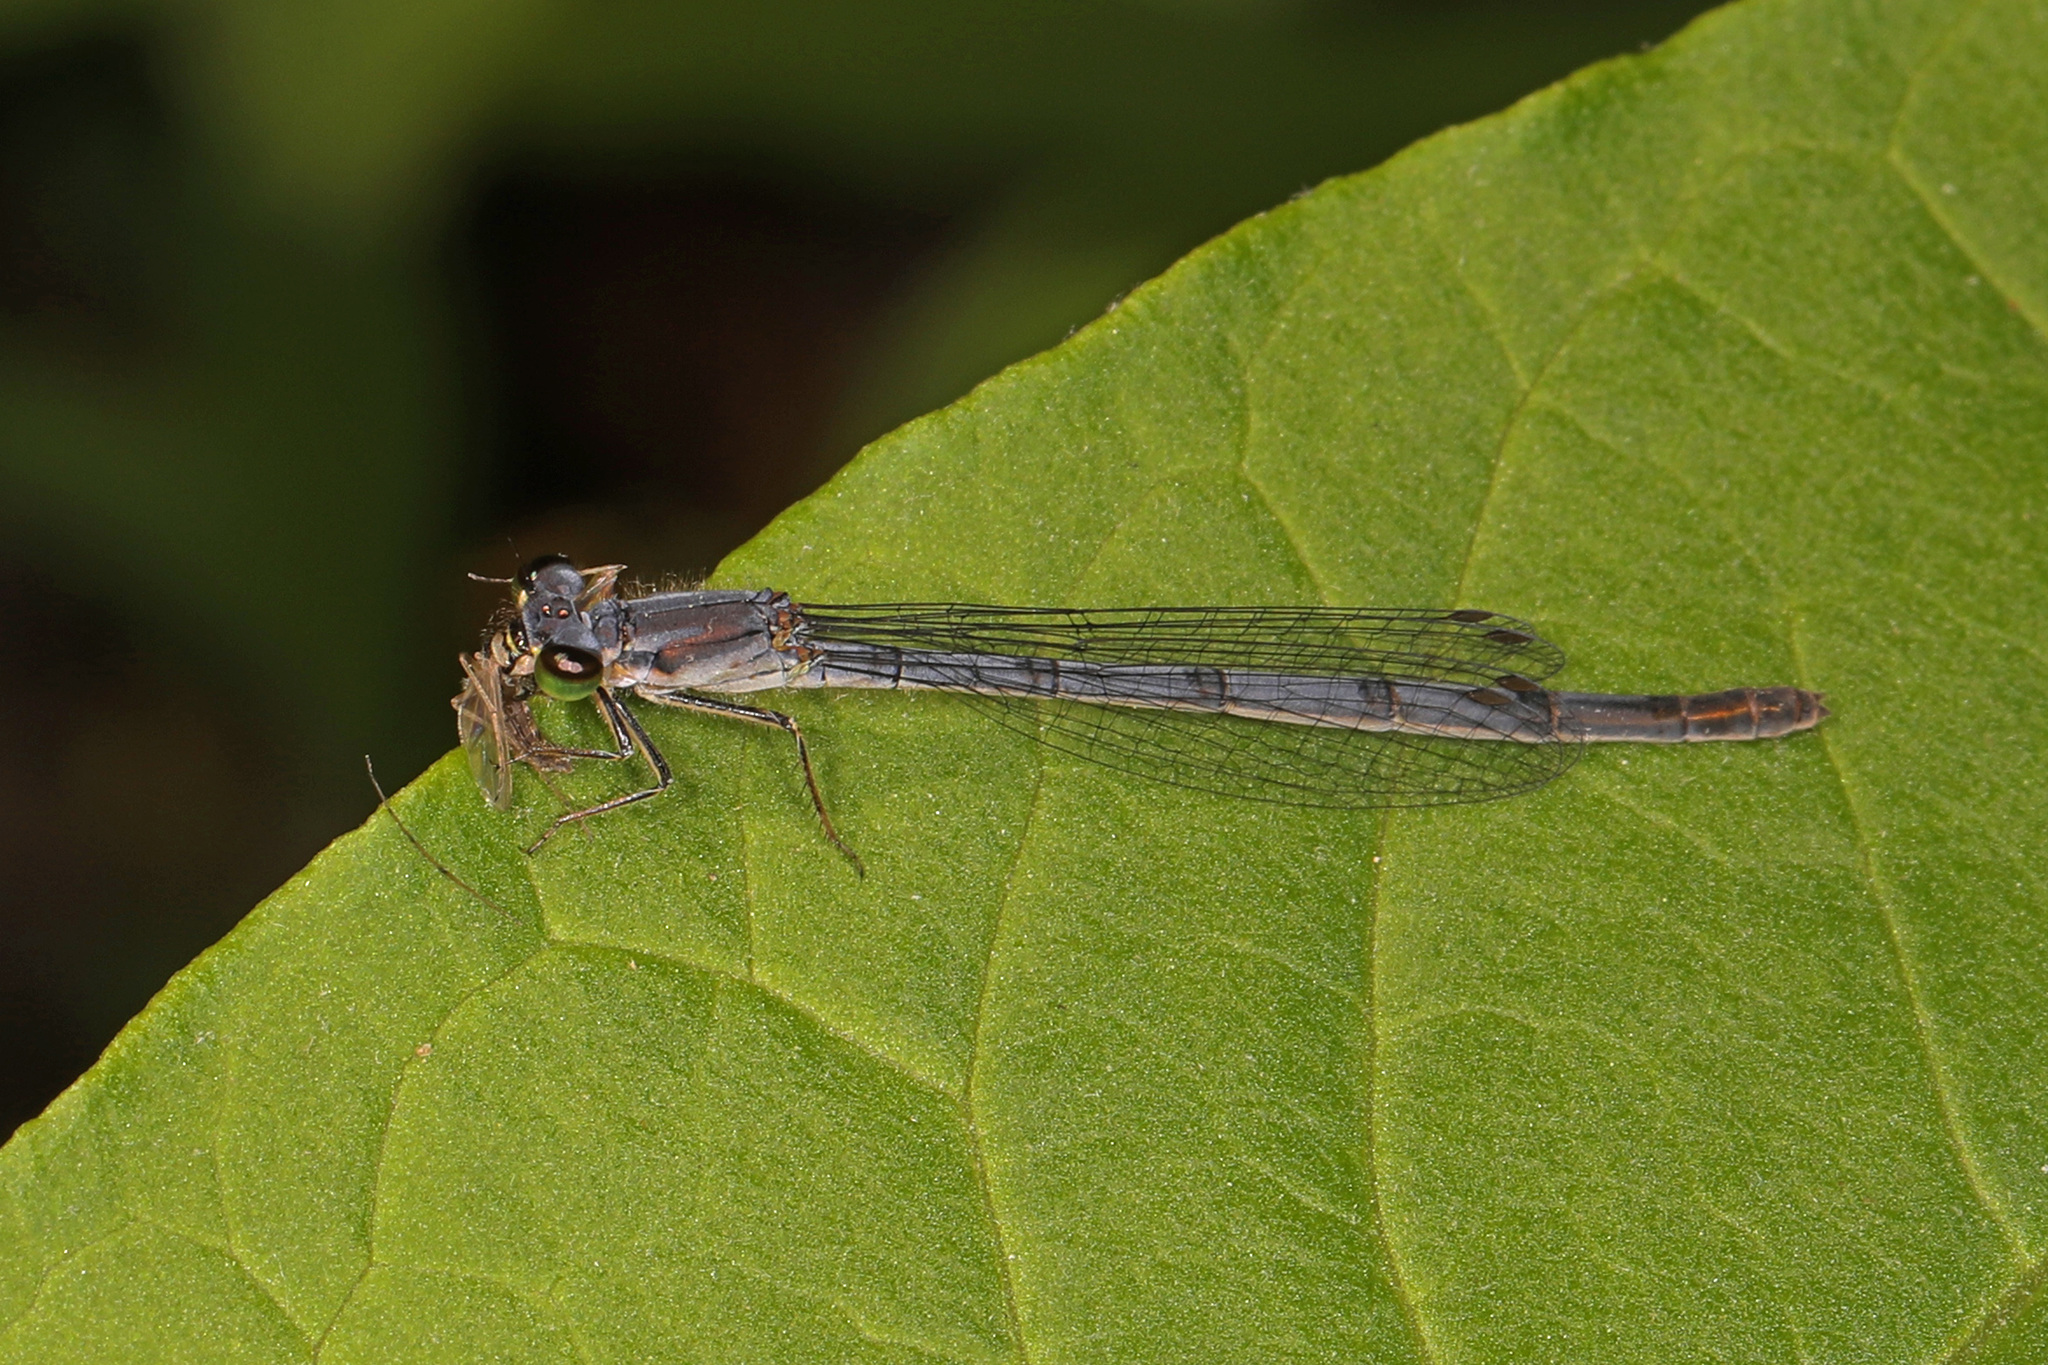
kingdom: Animalia
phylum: Arthropoda
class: Insecta
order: Odonata
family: Coenagrionidae
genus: Ischnura
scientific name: Ischnura posita
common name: Fragile forktail
